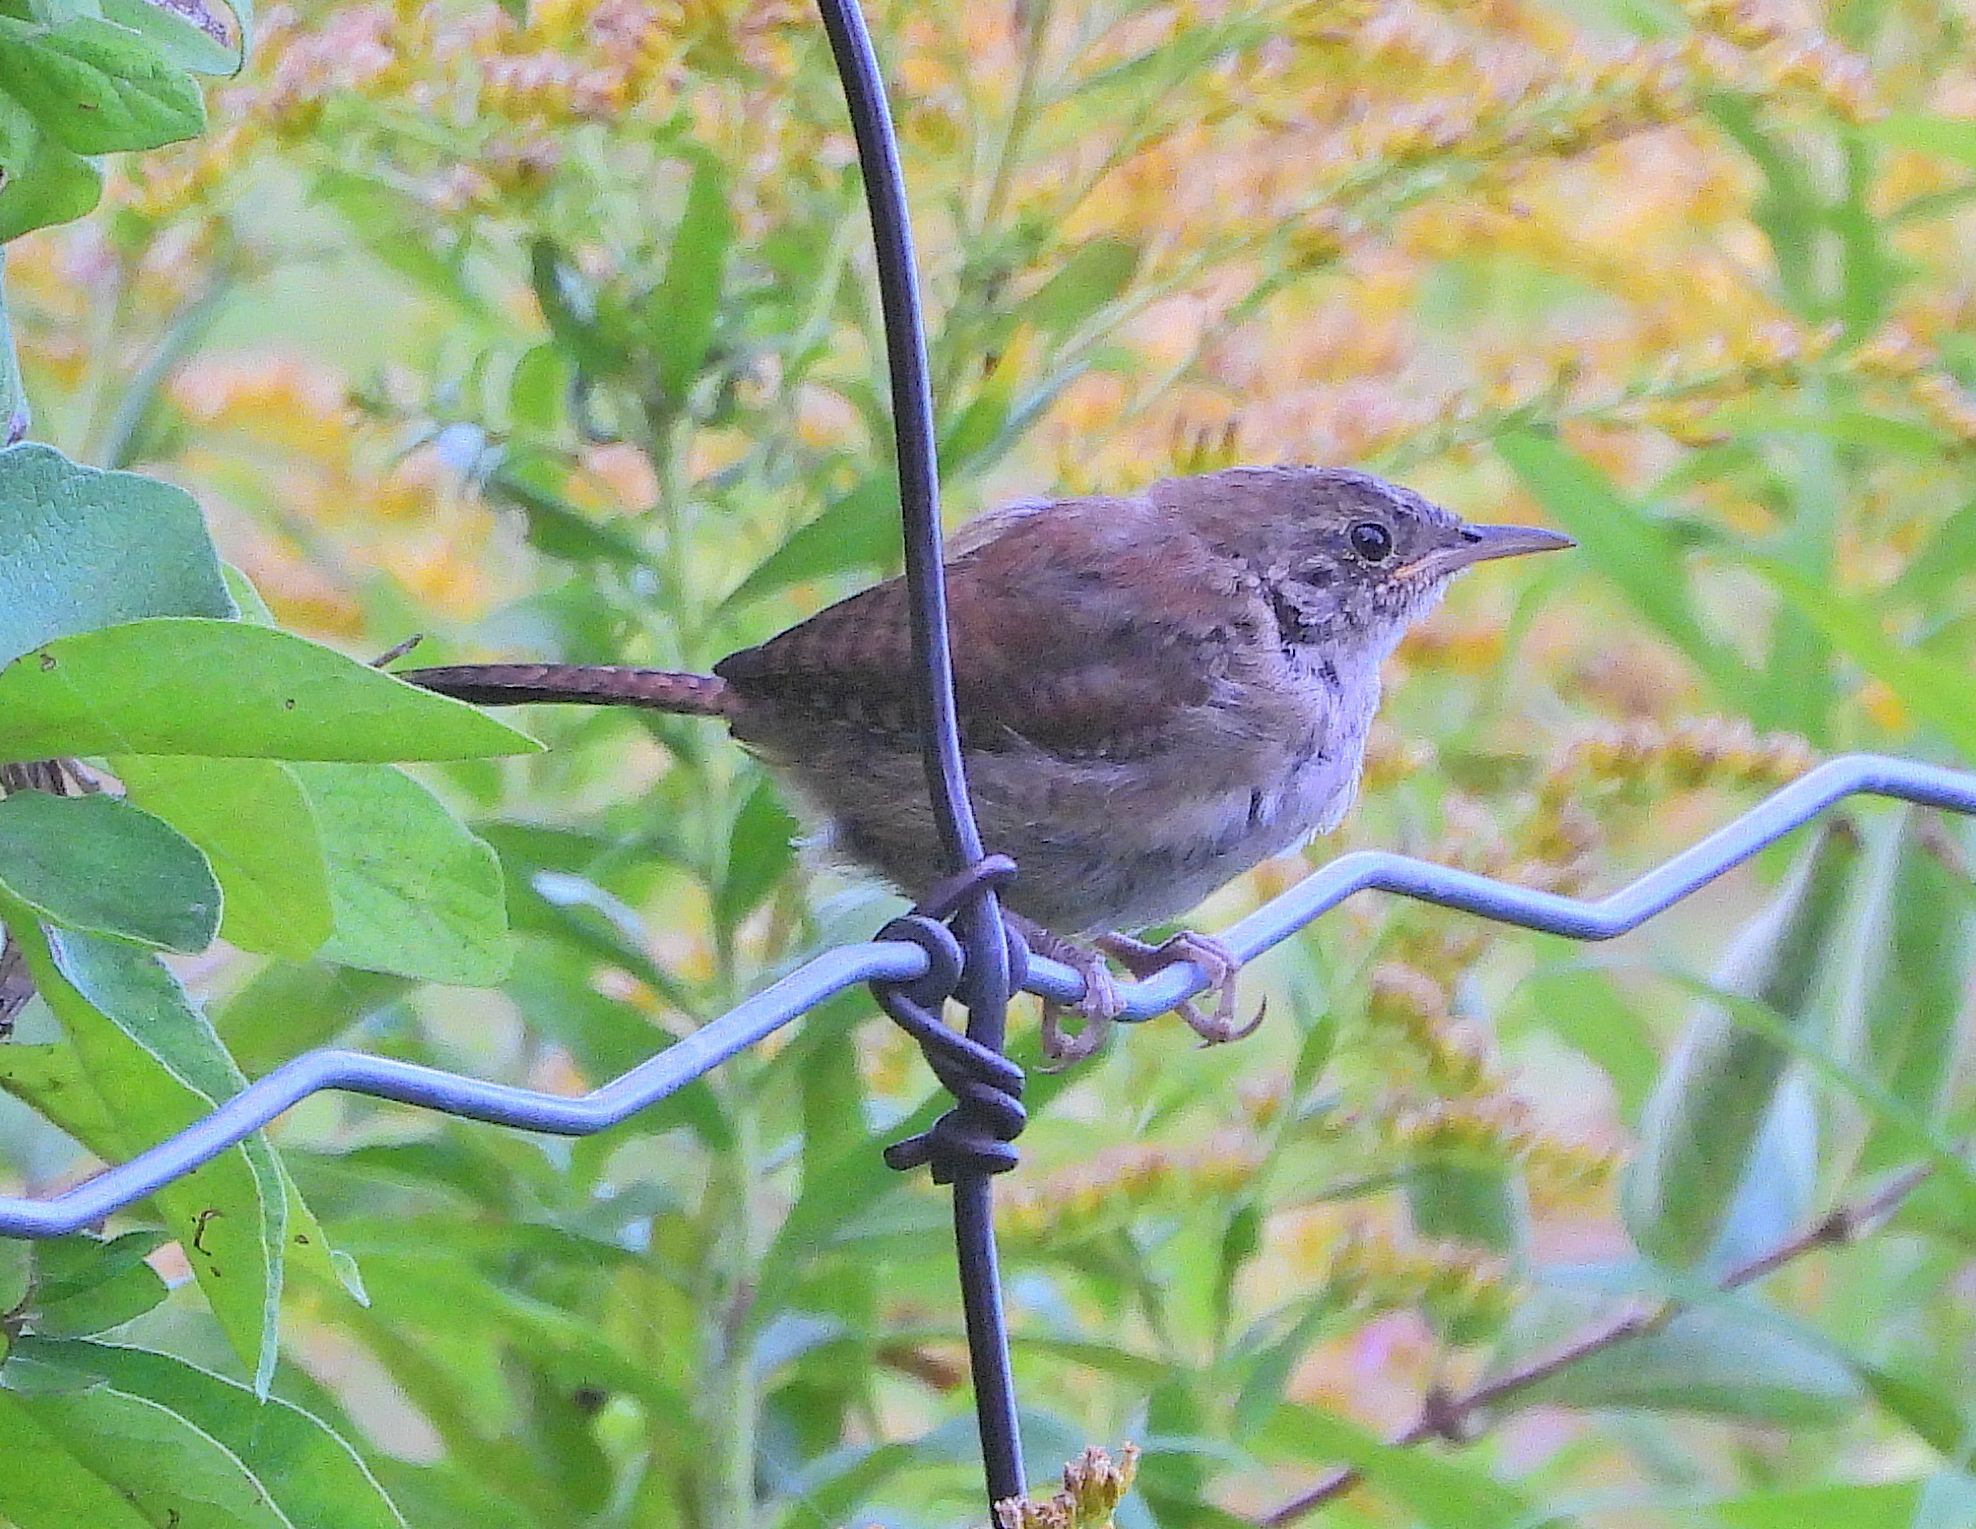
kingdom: Animalia
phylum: Chordata
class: Aves
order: Passeriformes
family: Troglodytidae
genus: Troglodytes
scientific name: Troglodytes aedon
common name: House wren
